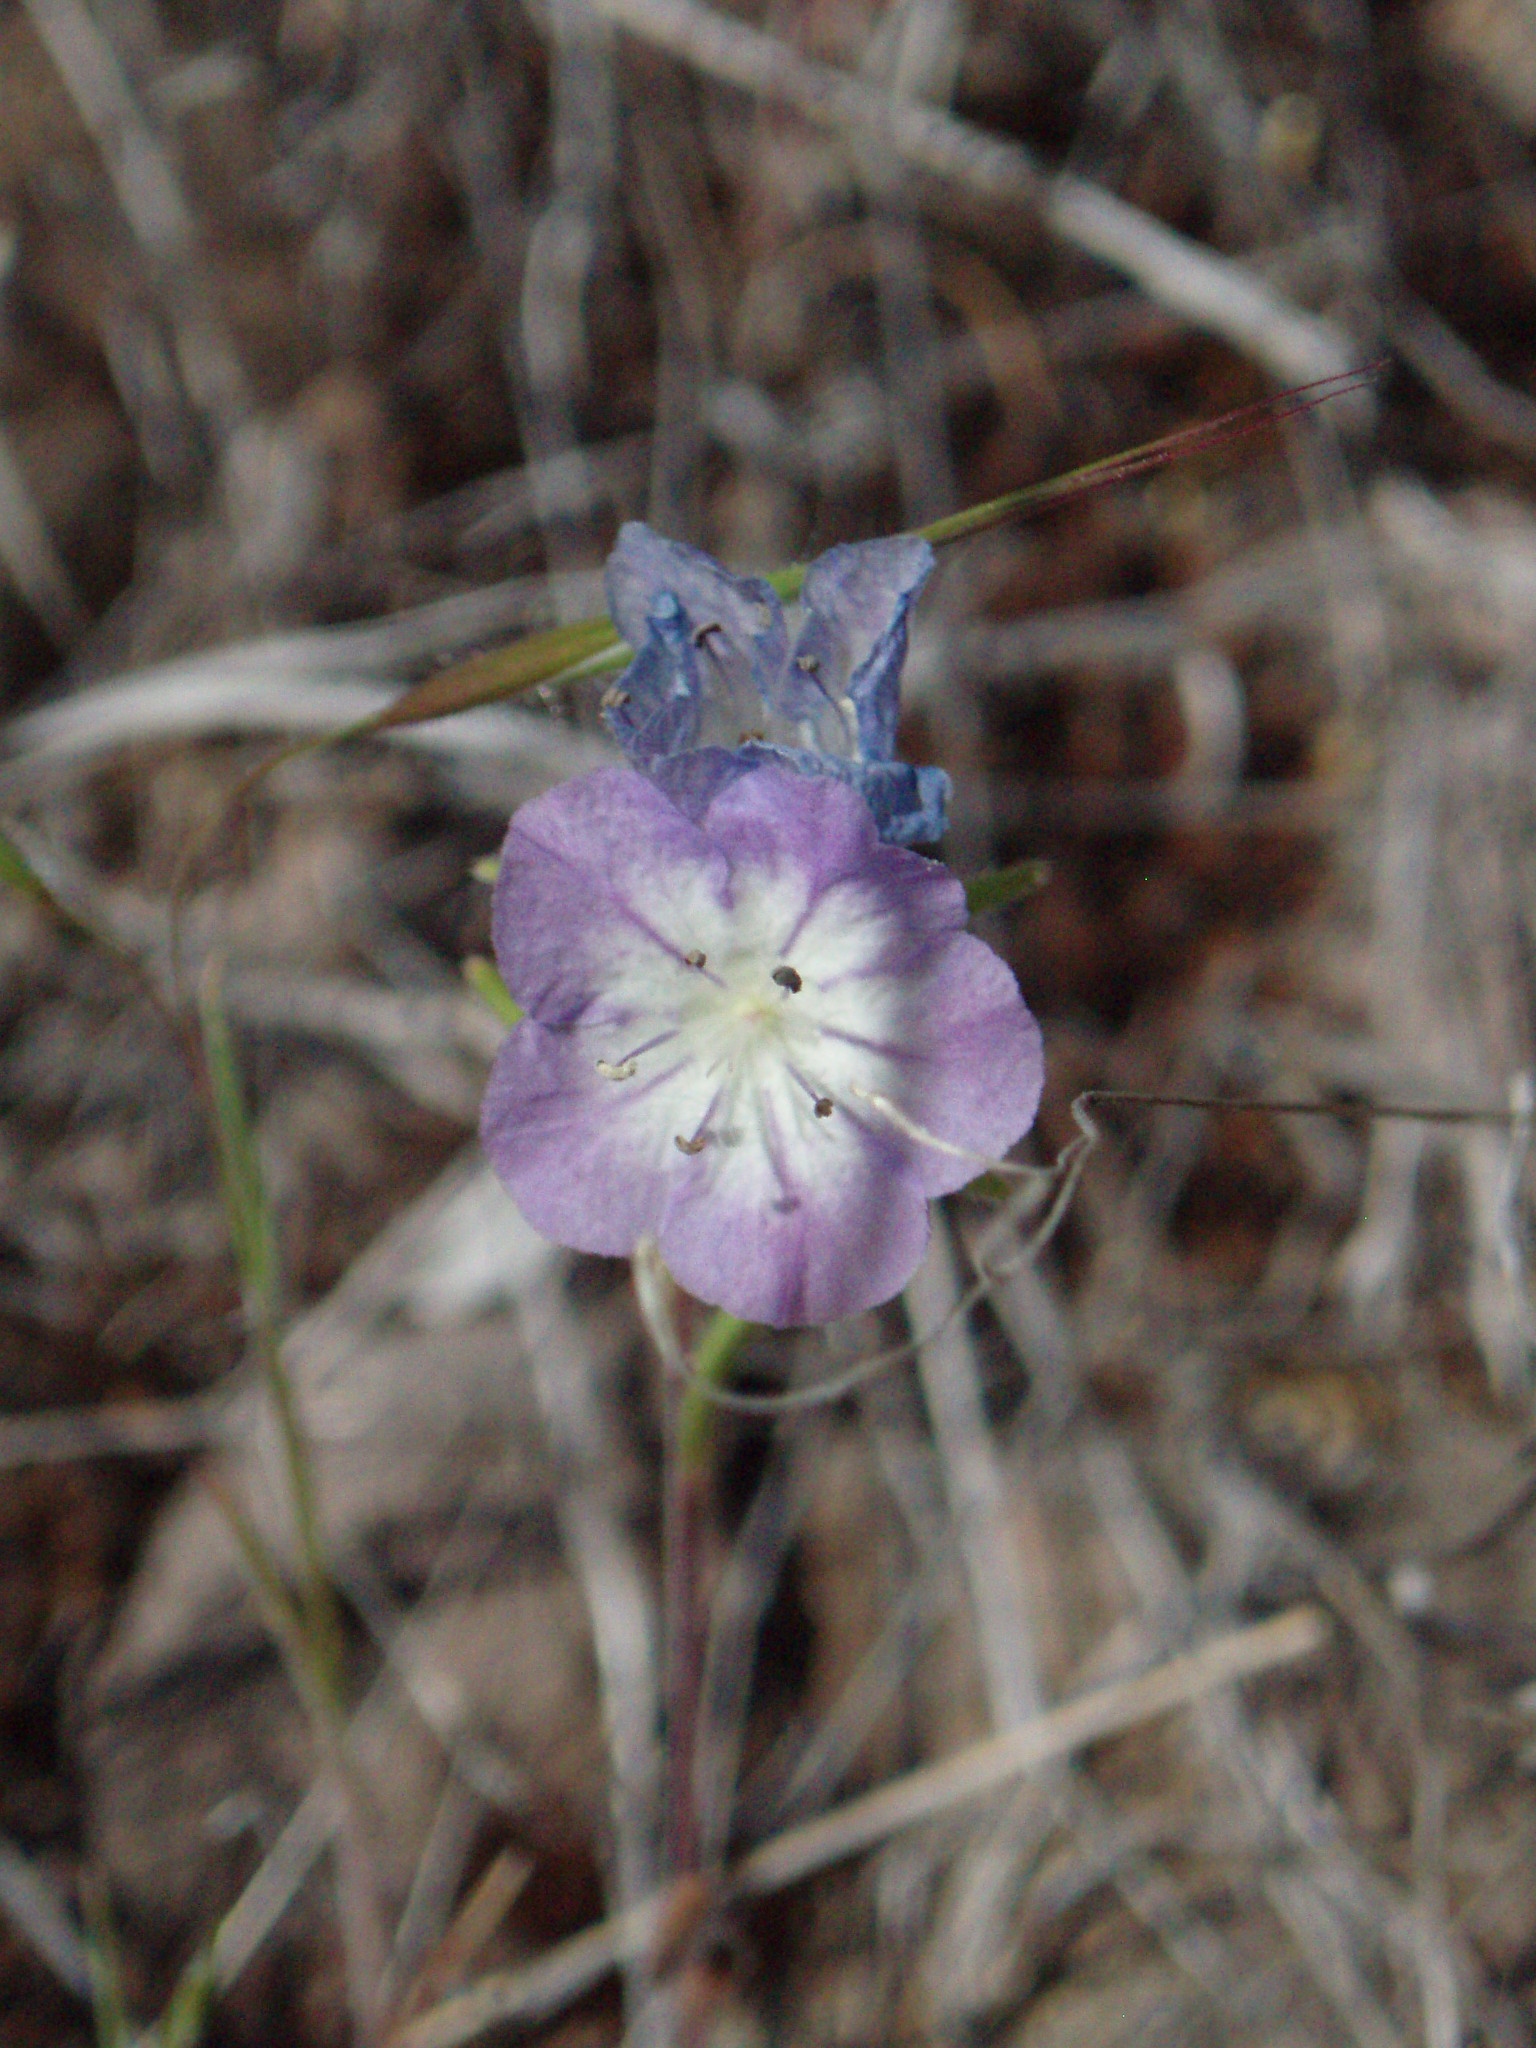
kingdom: Plantae
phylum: Tracheophyta
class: Magnoliopsida
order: Boraginales
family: Hydrophyllaceae
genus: Phacelia
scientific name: Phacelia linearis
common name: Linear-leaved phacelia
